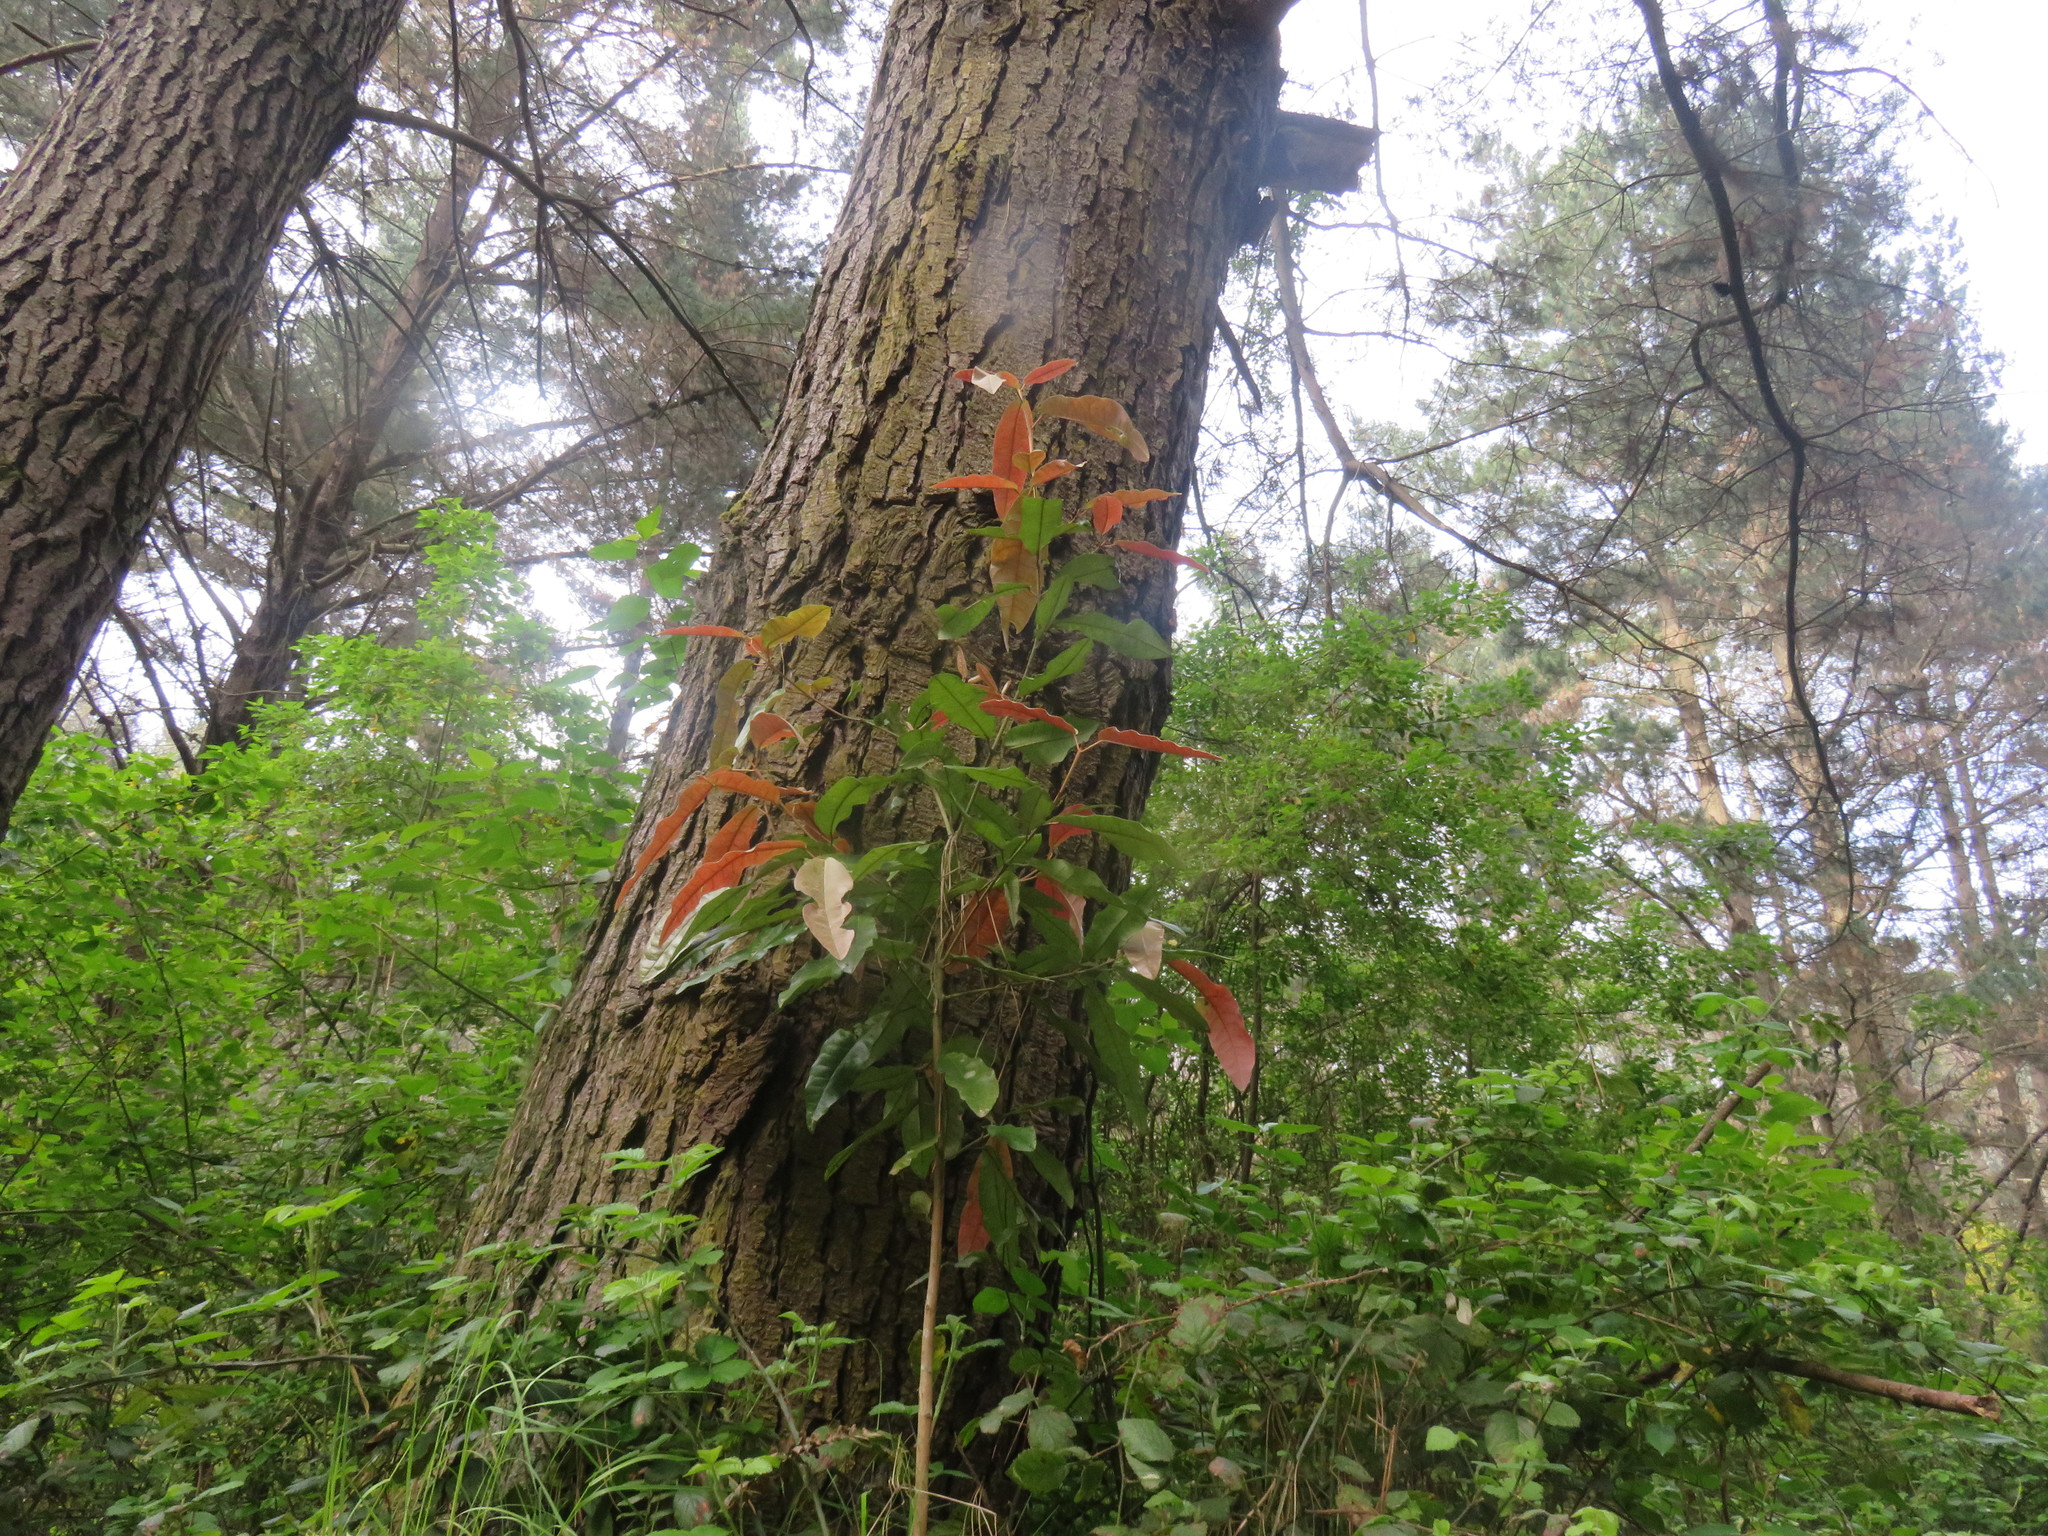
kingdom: Plantae
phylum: Tracheophyta
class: Magnoliopsida
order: Berberidopsidales
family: Aextoxicaceae
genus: Aextoxicon
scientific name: Aextoxicon punctatum
